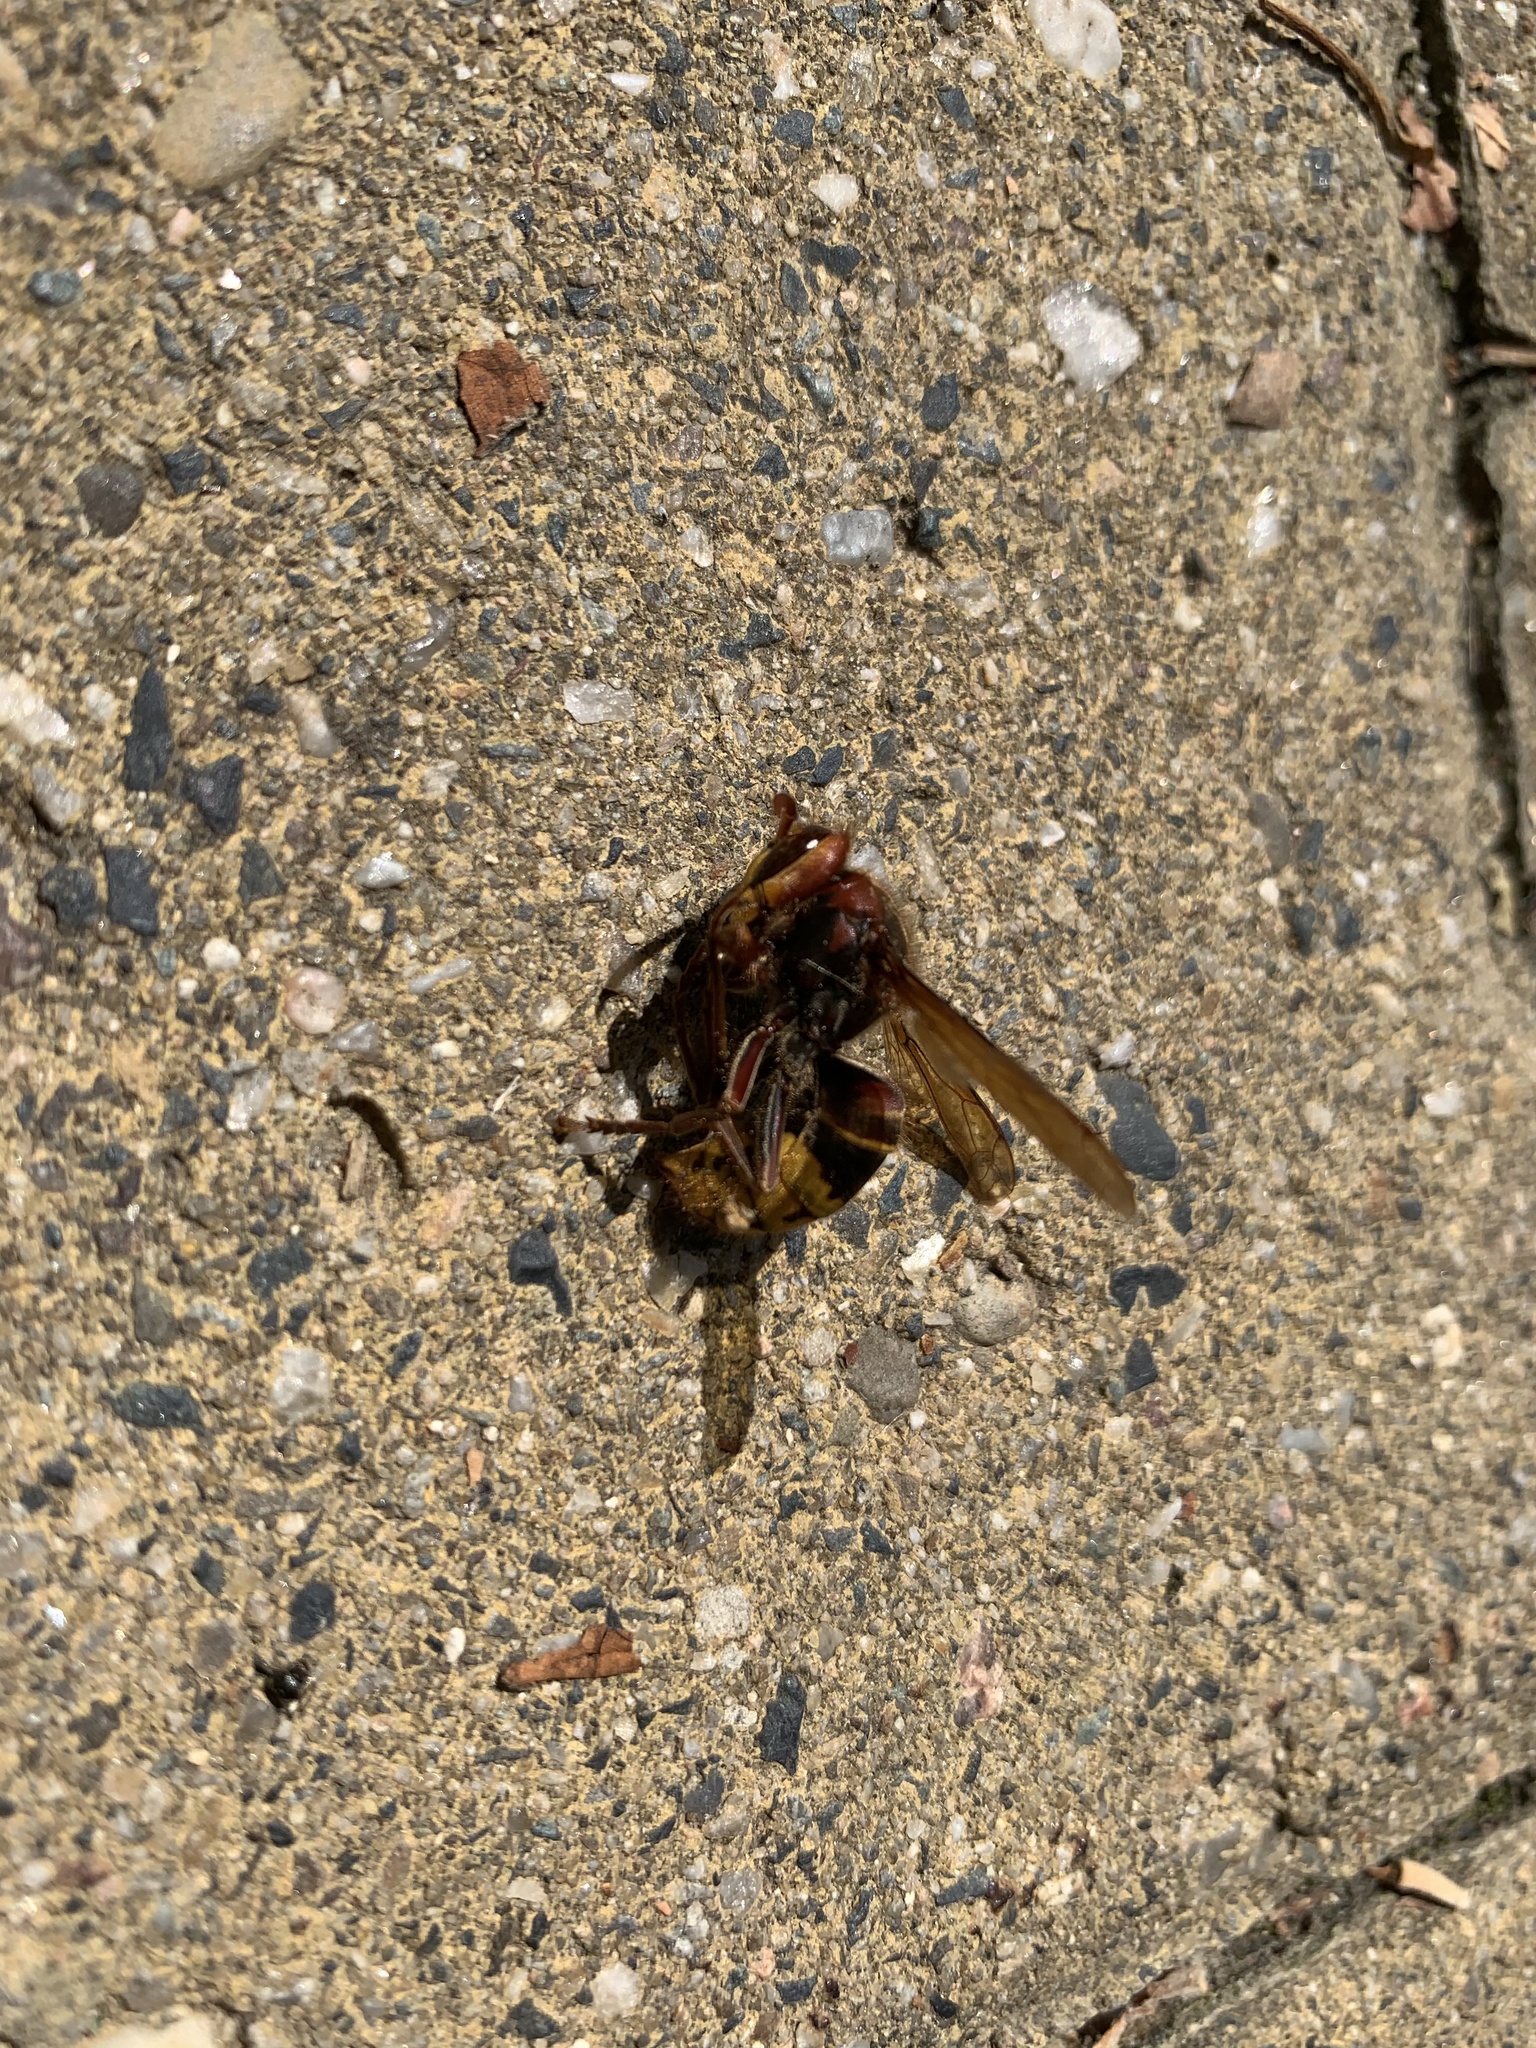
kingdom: Animalia
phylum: Arthropoda
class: Insecta
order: Hymenoptera
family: Vespidae
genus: Vespa
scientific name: Vespa crabro
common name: Hornet
